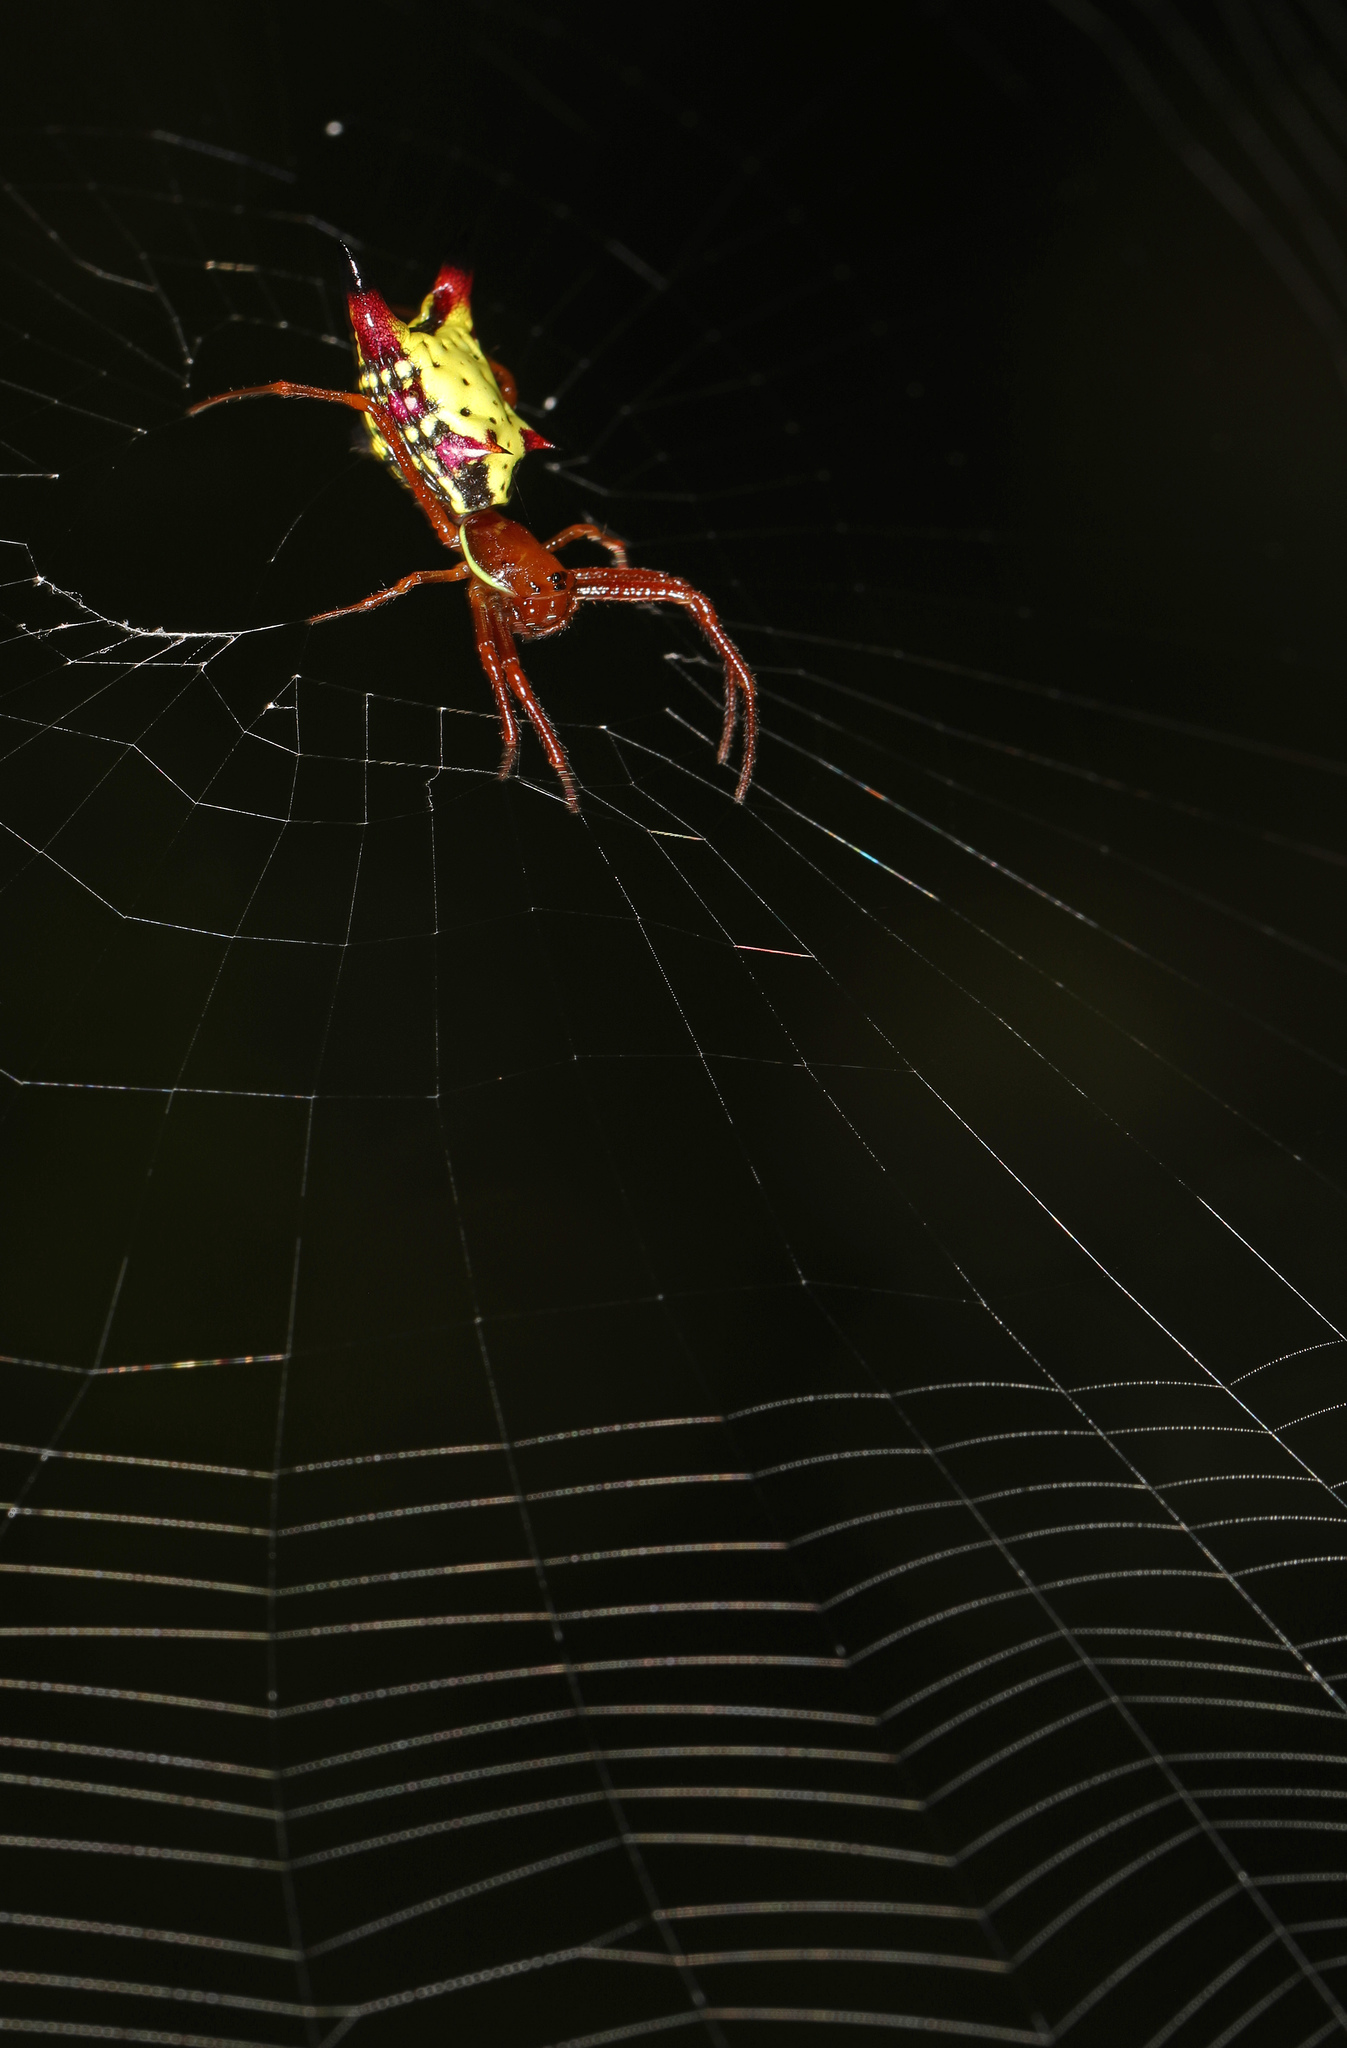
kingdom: Animalia
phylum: Arthropoda
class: Arachnida
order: Araneae
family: Araneidae
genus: Micrathena
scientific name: Micrathena sagittata
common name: Orb weavers
